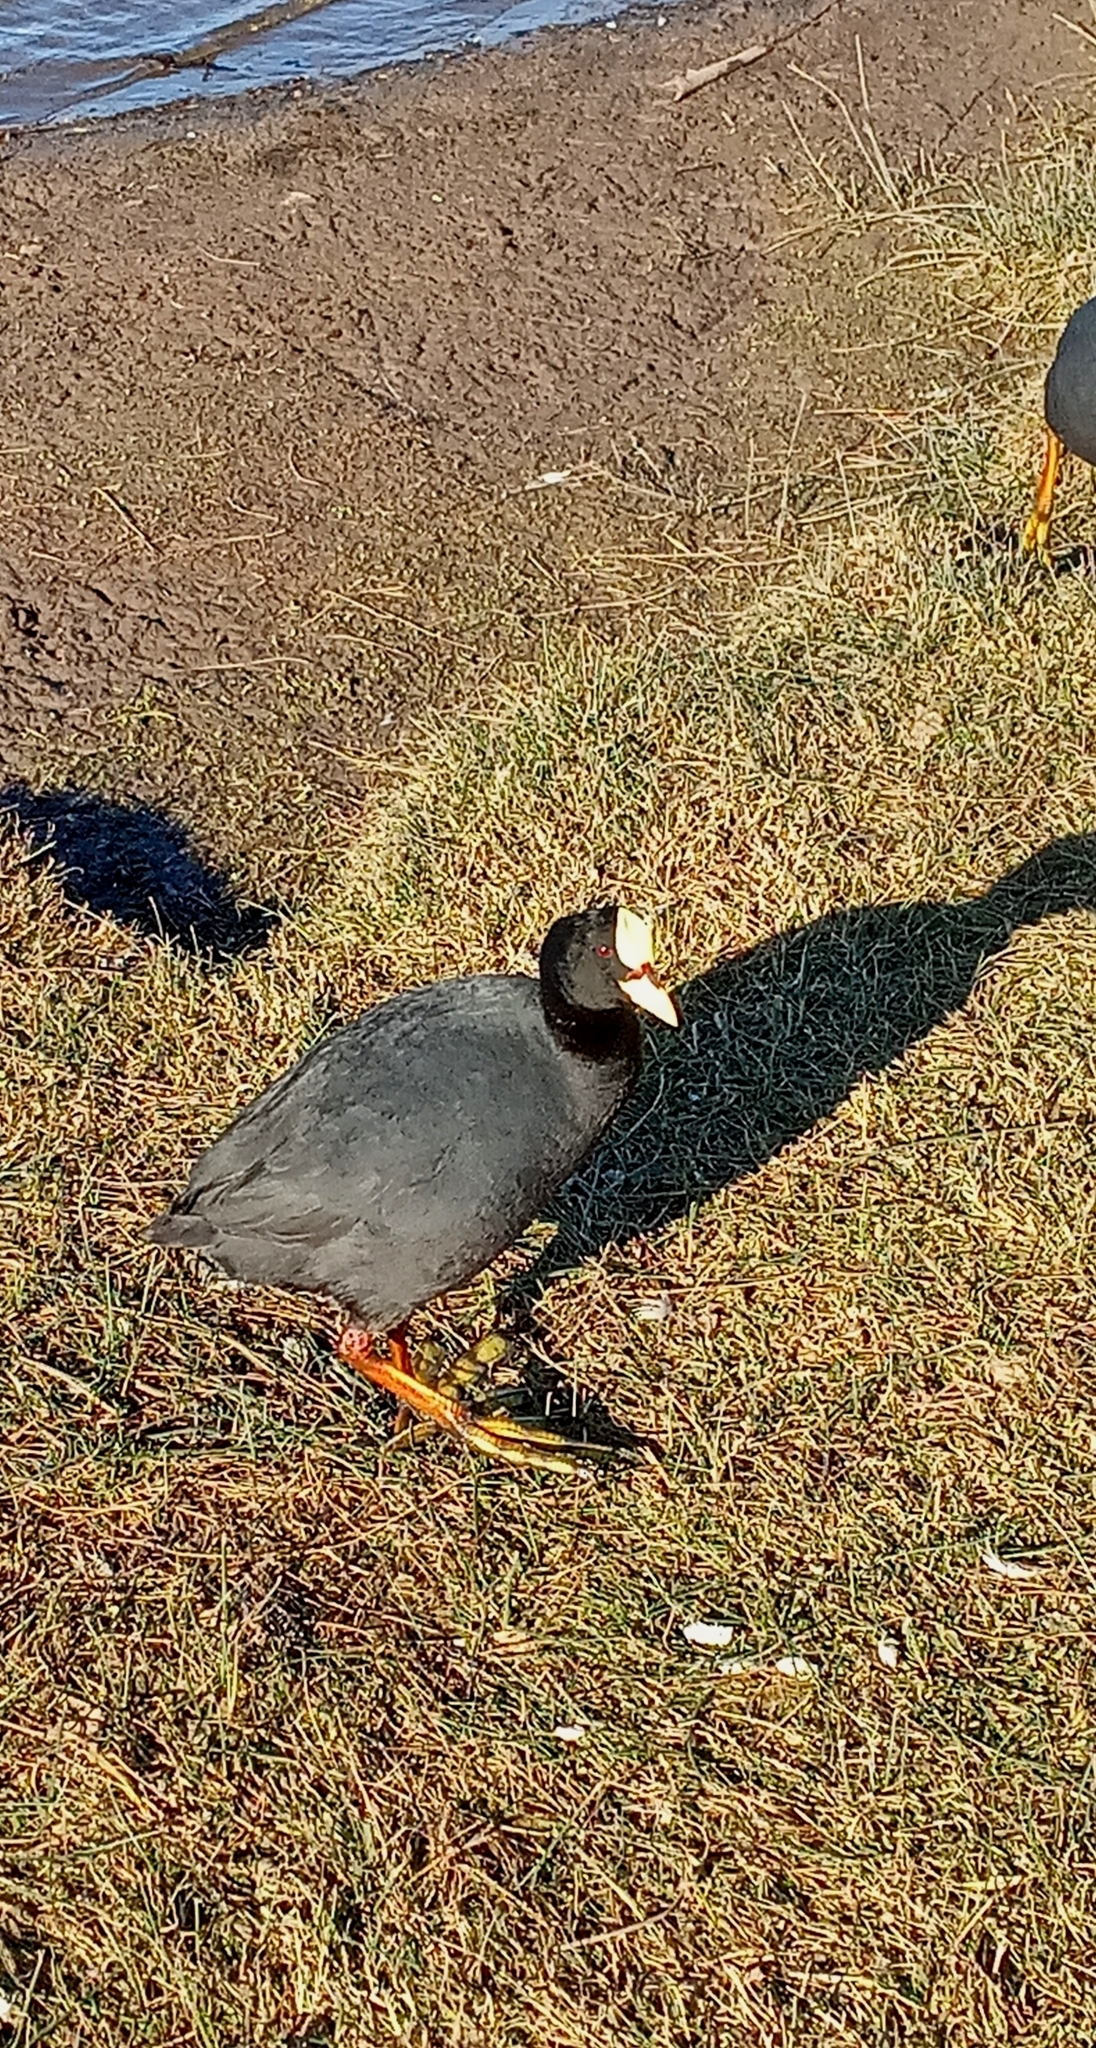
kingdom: Animalia
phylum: Chordata
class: Aves
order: Gruiformes
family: Rallidae
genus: Fulica
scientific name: Fulica armillata
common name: Red-gartered coot
